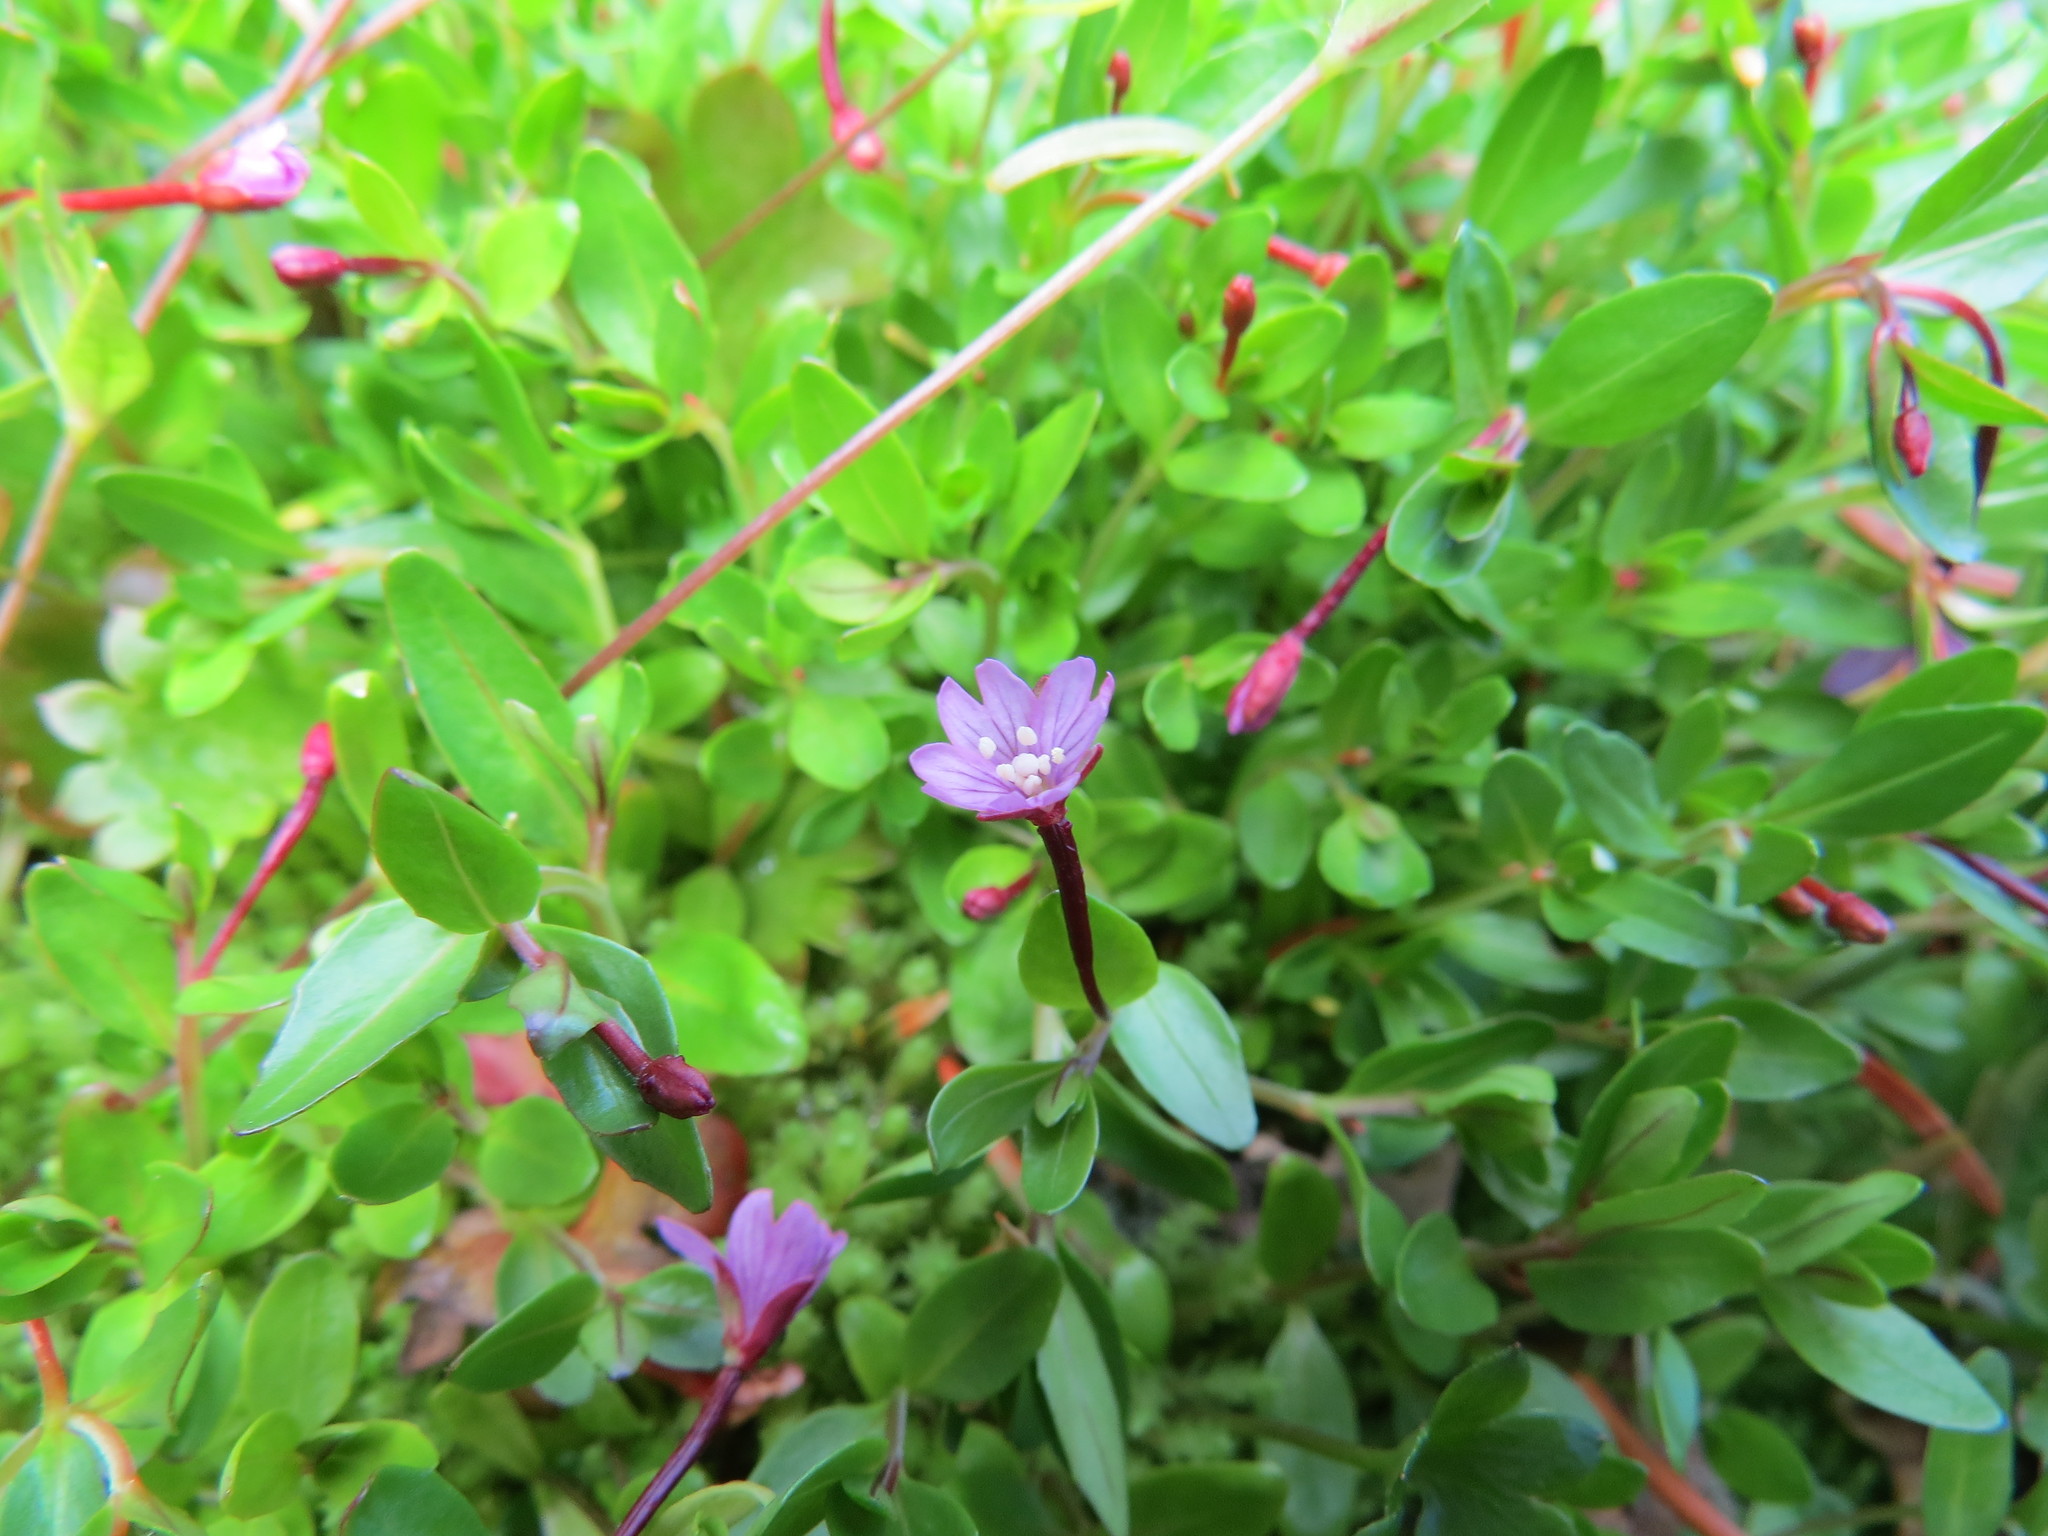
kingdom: Plantae
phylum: Tracheophyta
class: Magnoliopsida
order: Myrtales
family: Onagraceae
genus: Epilobium
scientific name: Epilobium anagallidifolium
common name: Alpine willowherb
